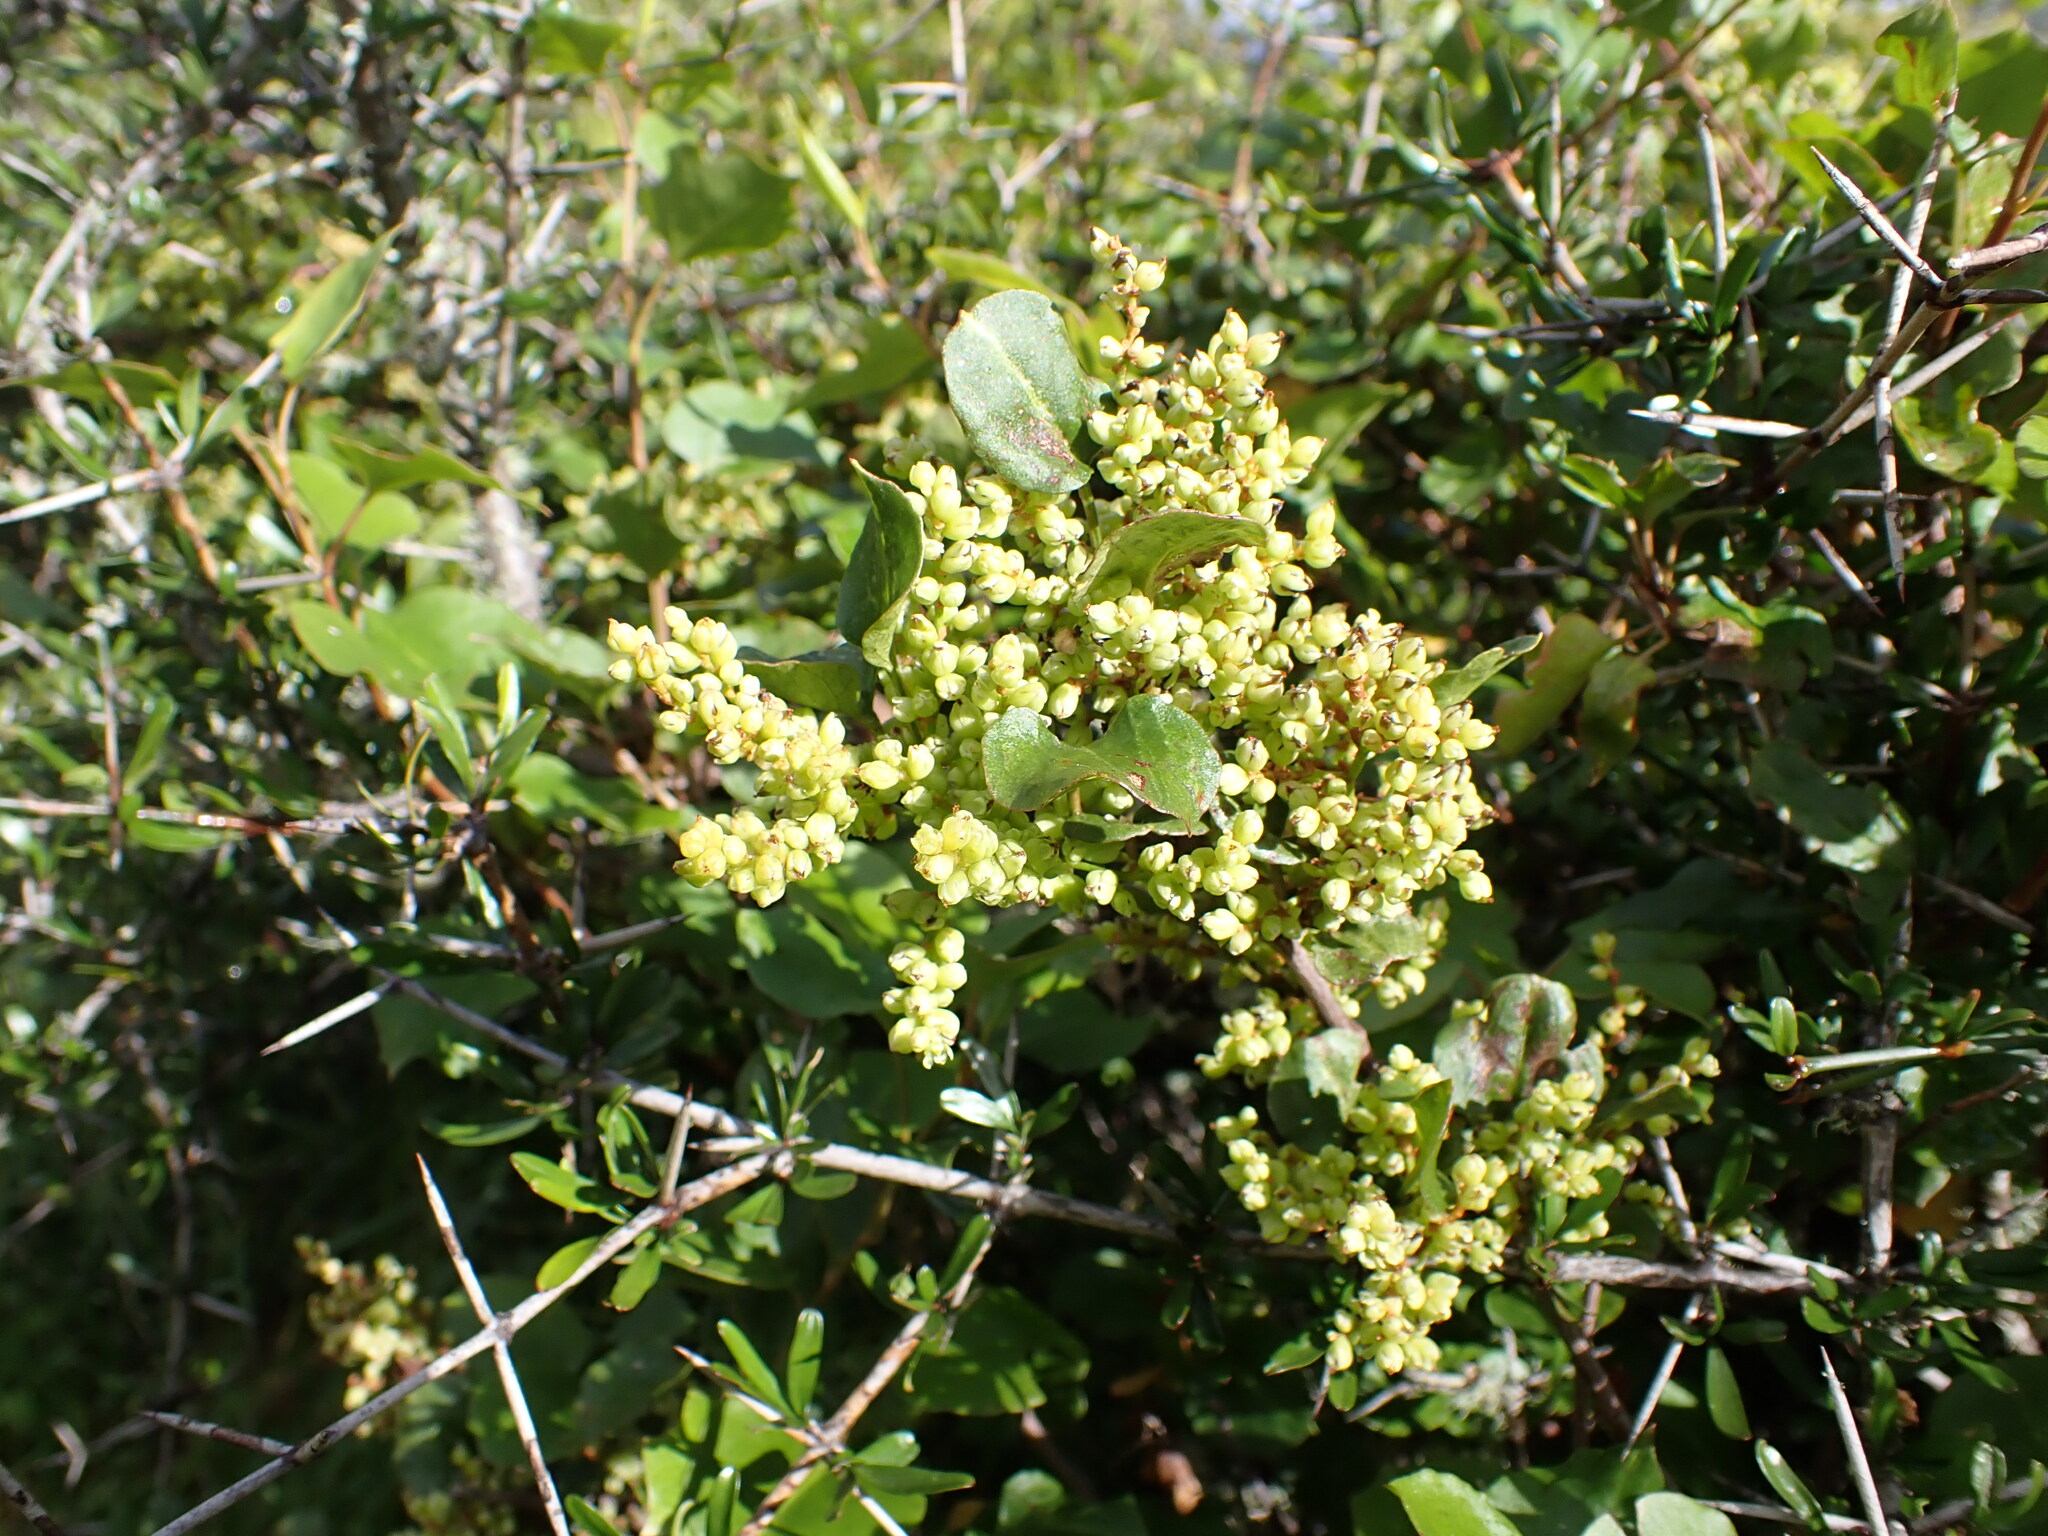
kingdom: Plantae
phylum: Tracheophyta
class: Magnoliopsida
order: Caryophyllales
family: Polygonaceae
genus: Muehlenbeckia
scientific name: Muehlenbeckia australis
